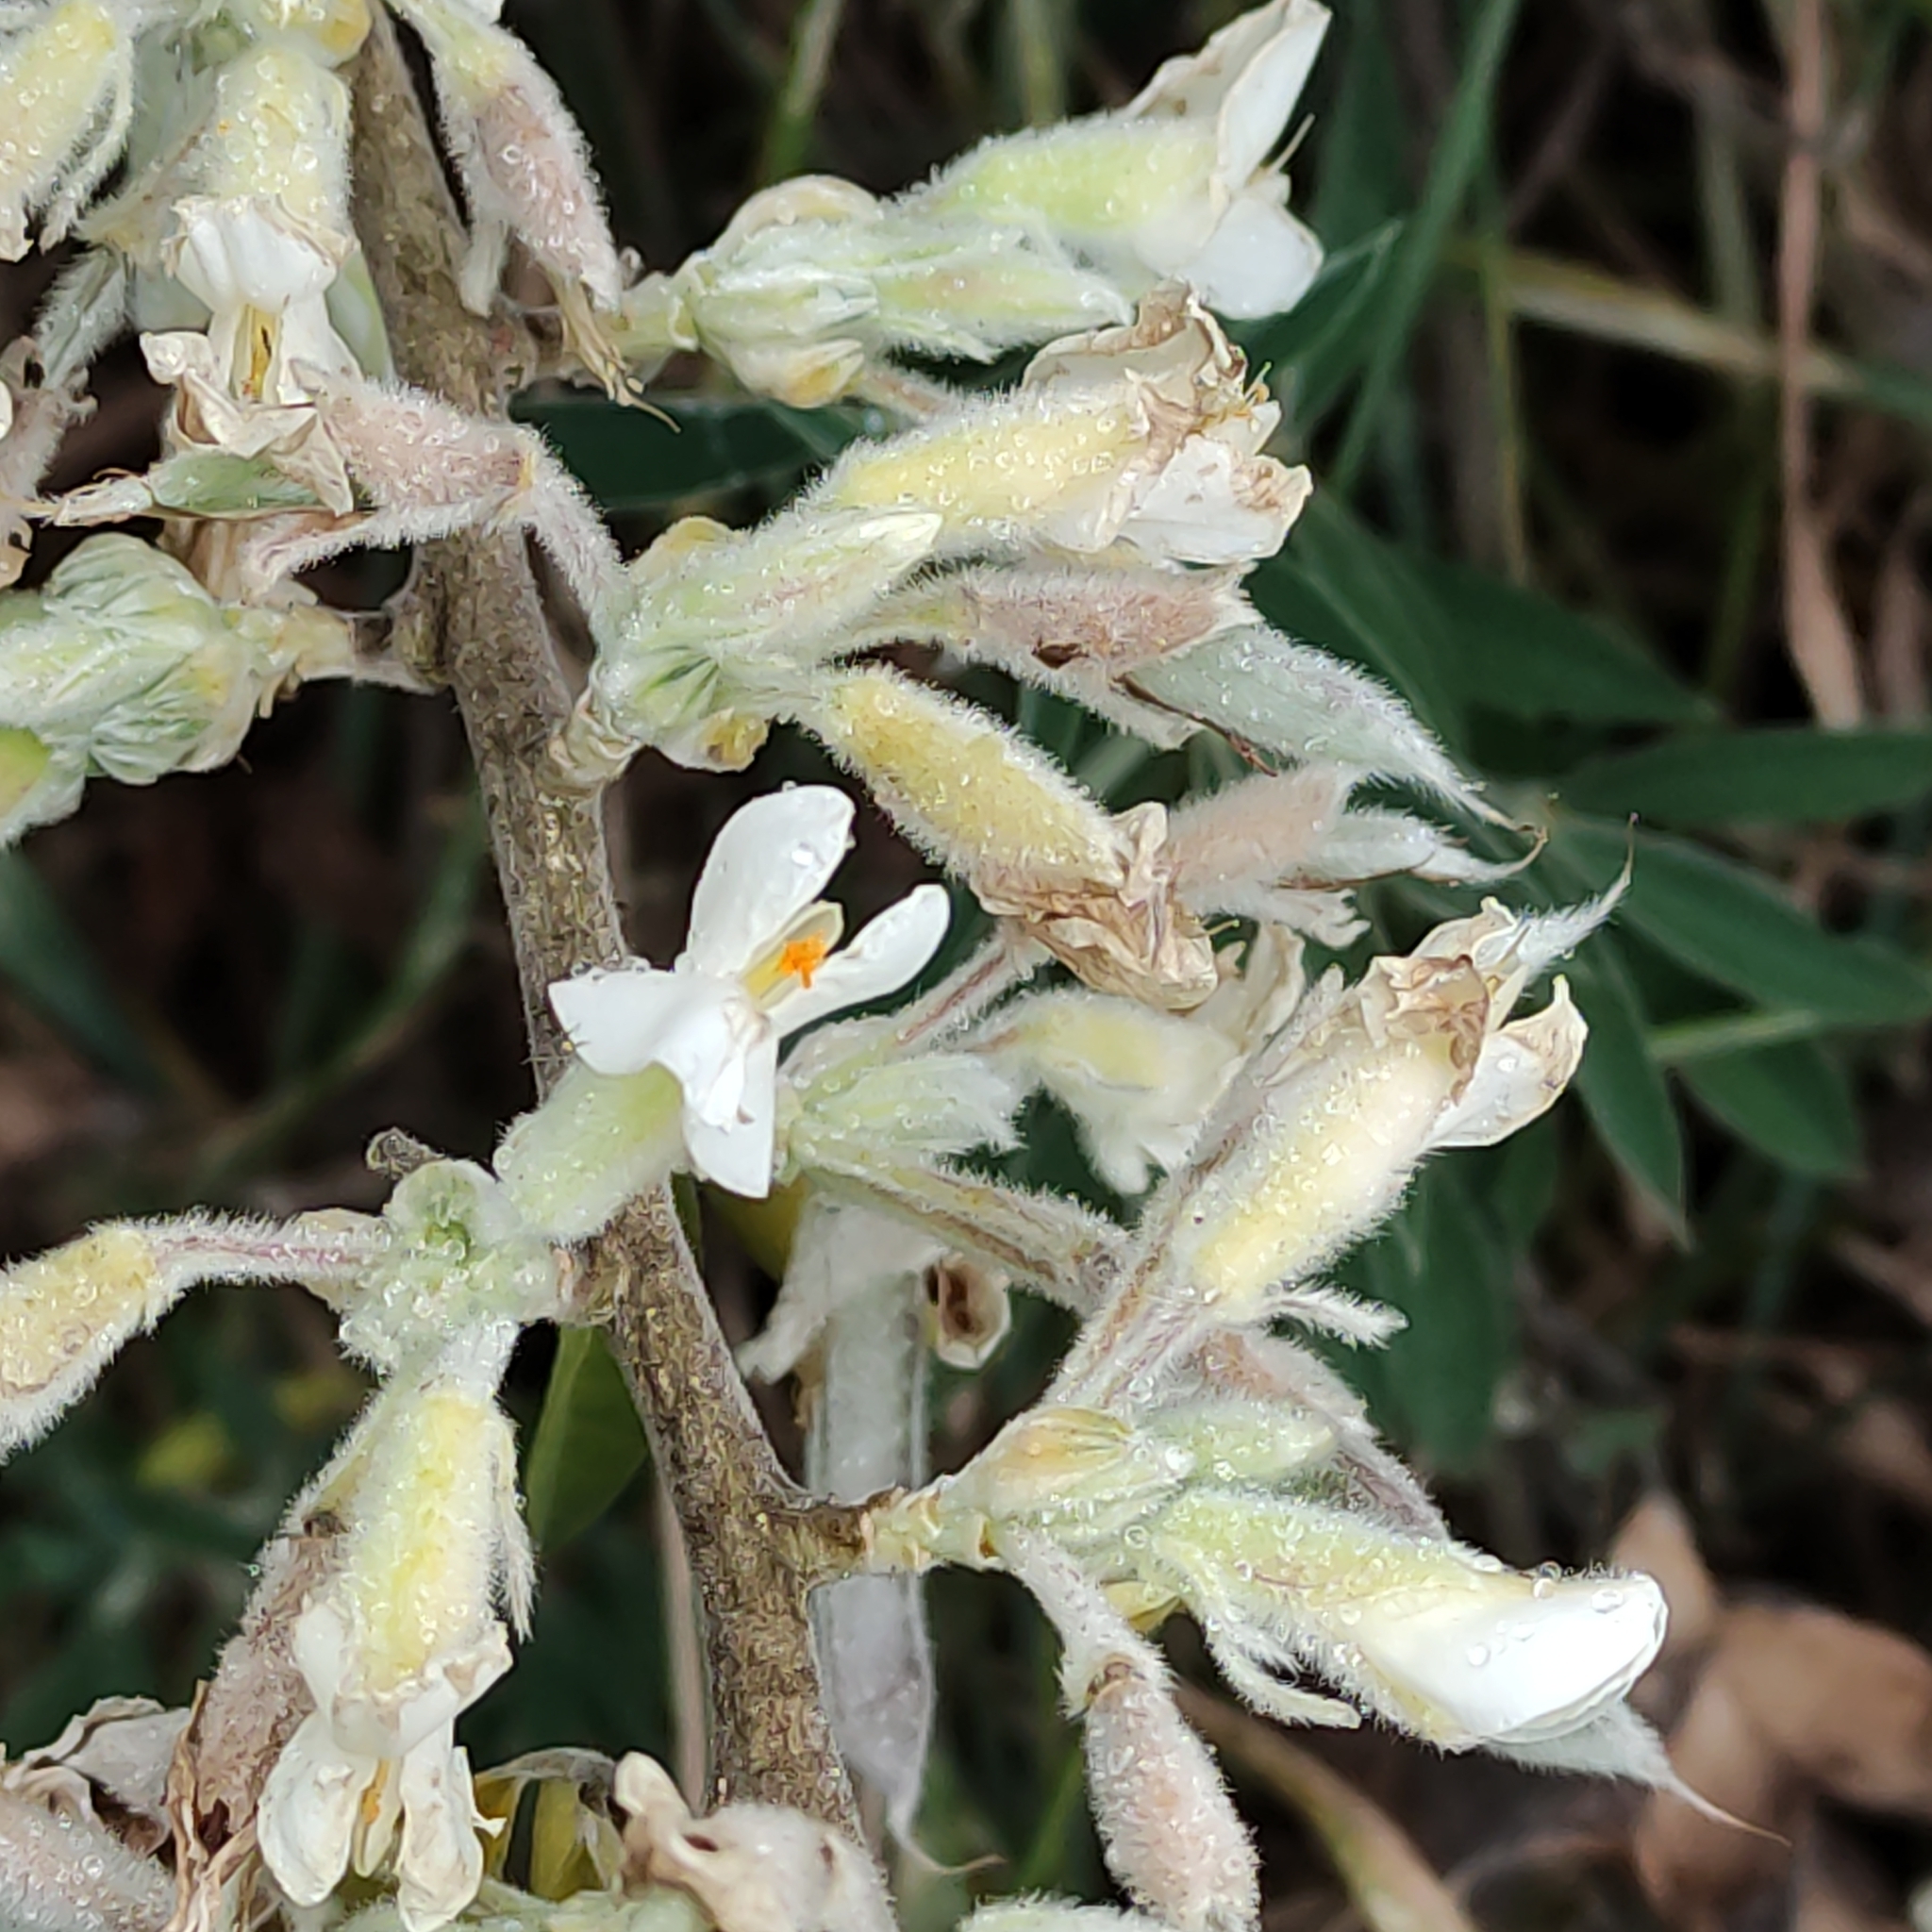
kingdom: Plantae
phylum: Tracheophyta
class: Magnoliopsida
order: Fabales
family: Fabaceae
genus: Chamaecytisus
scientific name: Chamaecytisus prolifer
